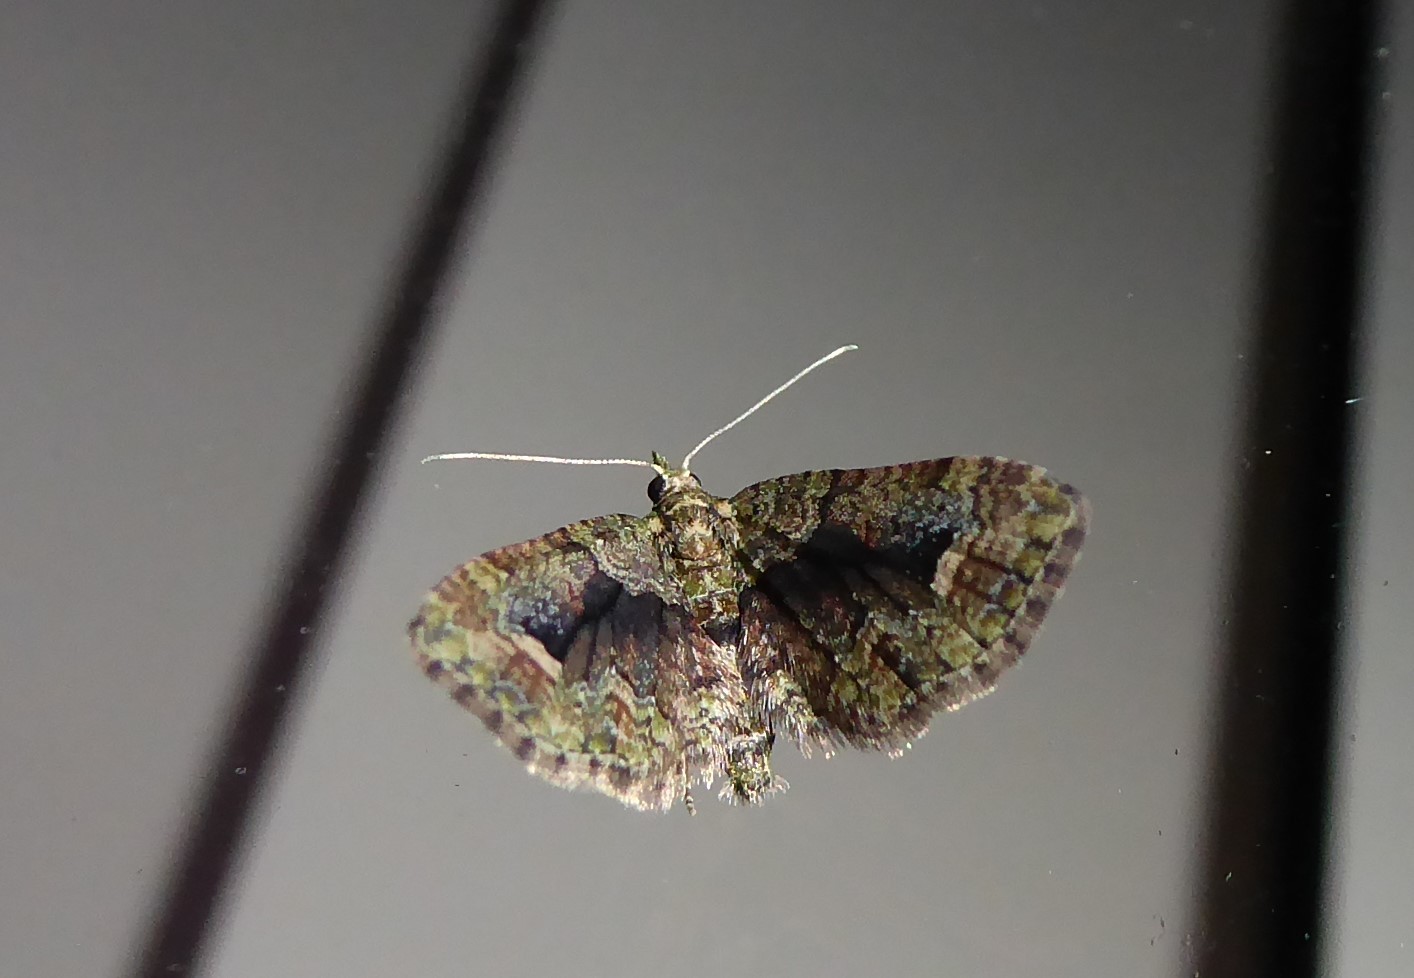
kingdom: Animalia
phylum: Arthropoda
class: Insecta
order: Lepidoptera
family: Geometridae
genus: Idaea
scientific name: Idaea mutanda
